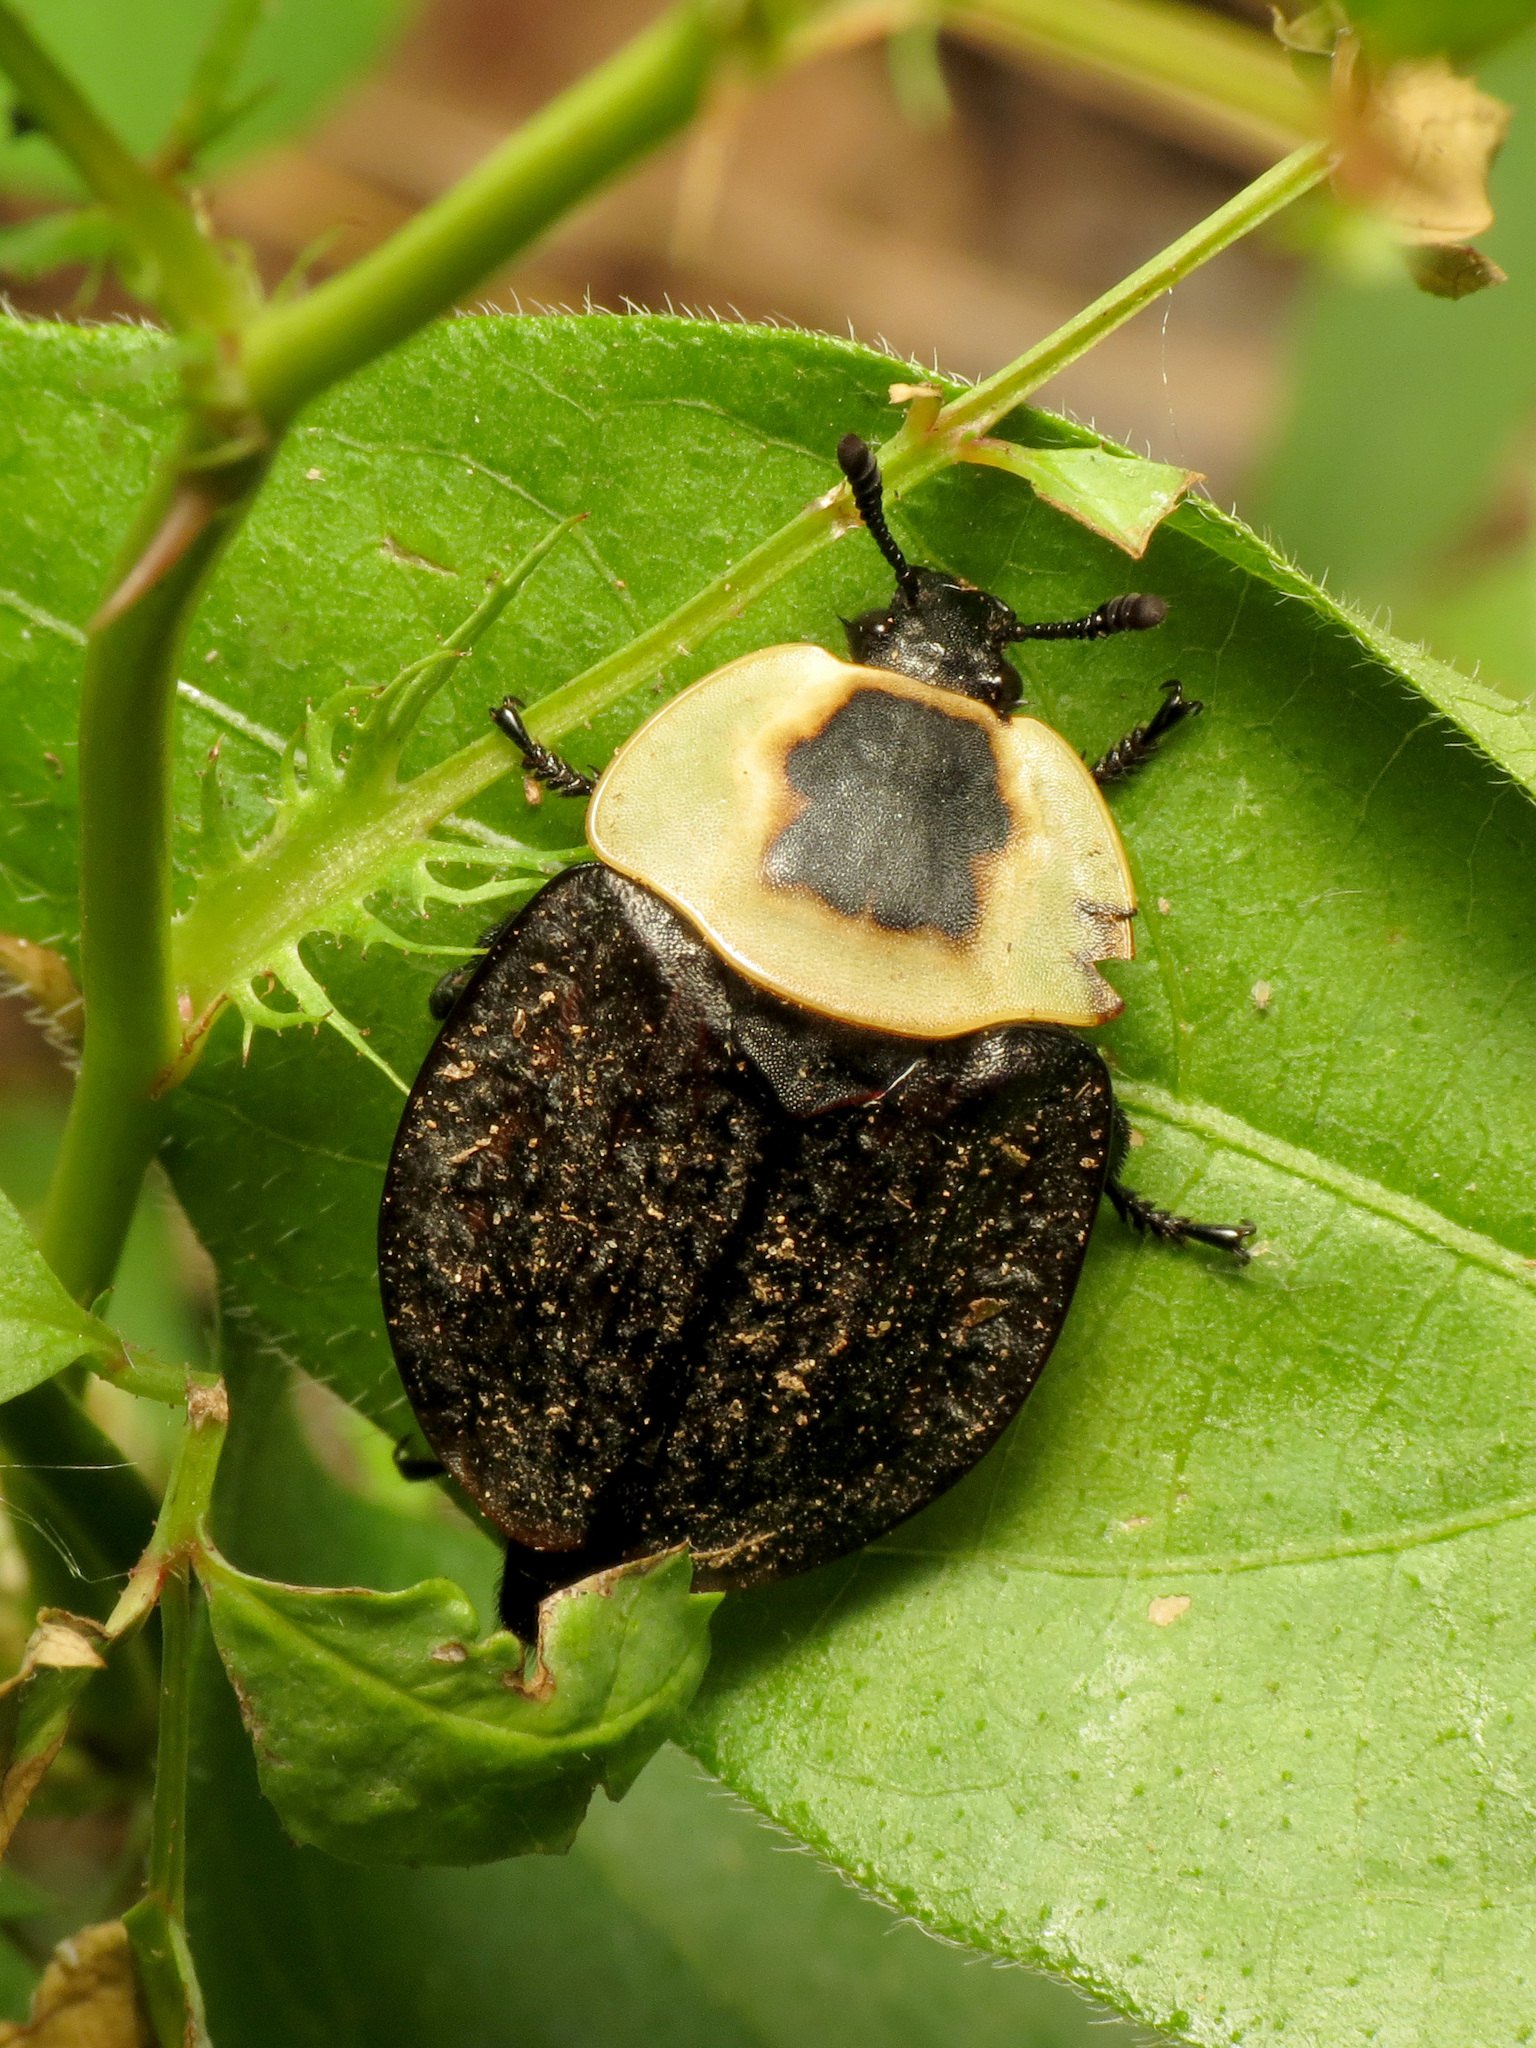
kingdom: Animalia
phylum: Arthropoda
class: Insecta
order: Coleoptera
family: Staphylinidae
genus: Necrophila
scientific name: Necrophila americana
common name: American carrion beetle
